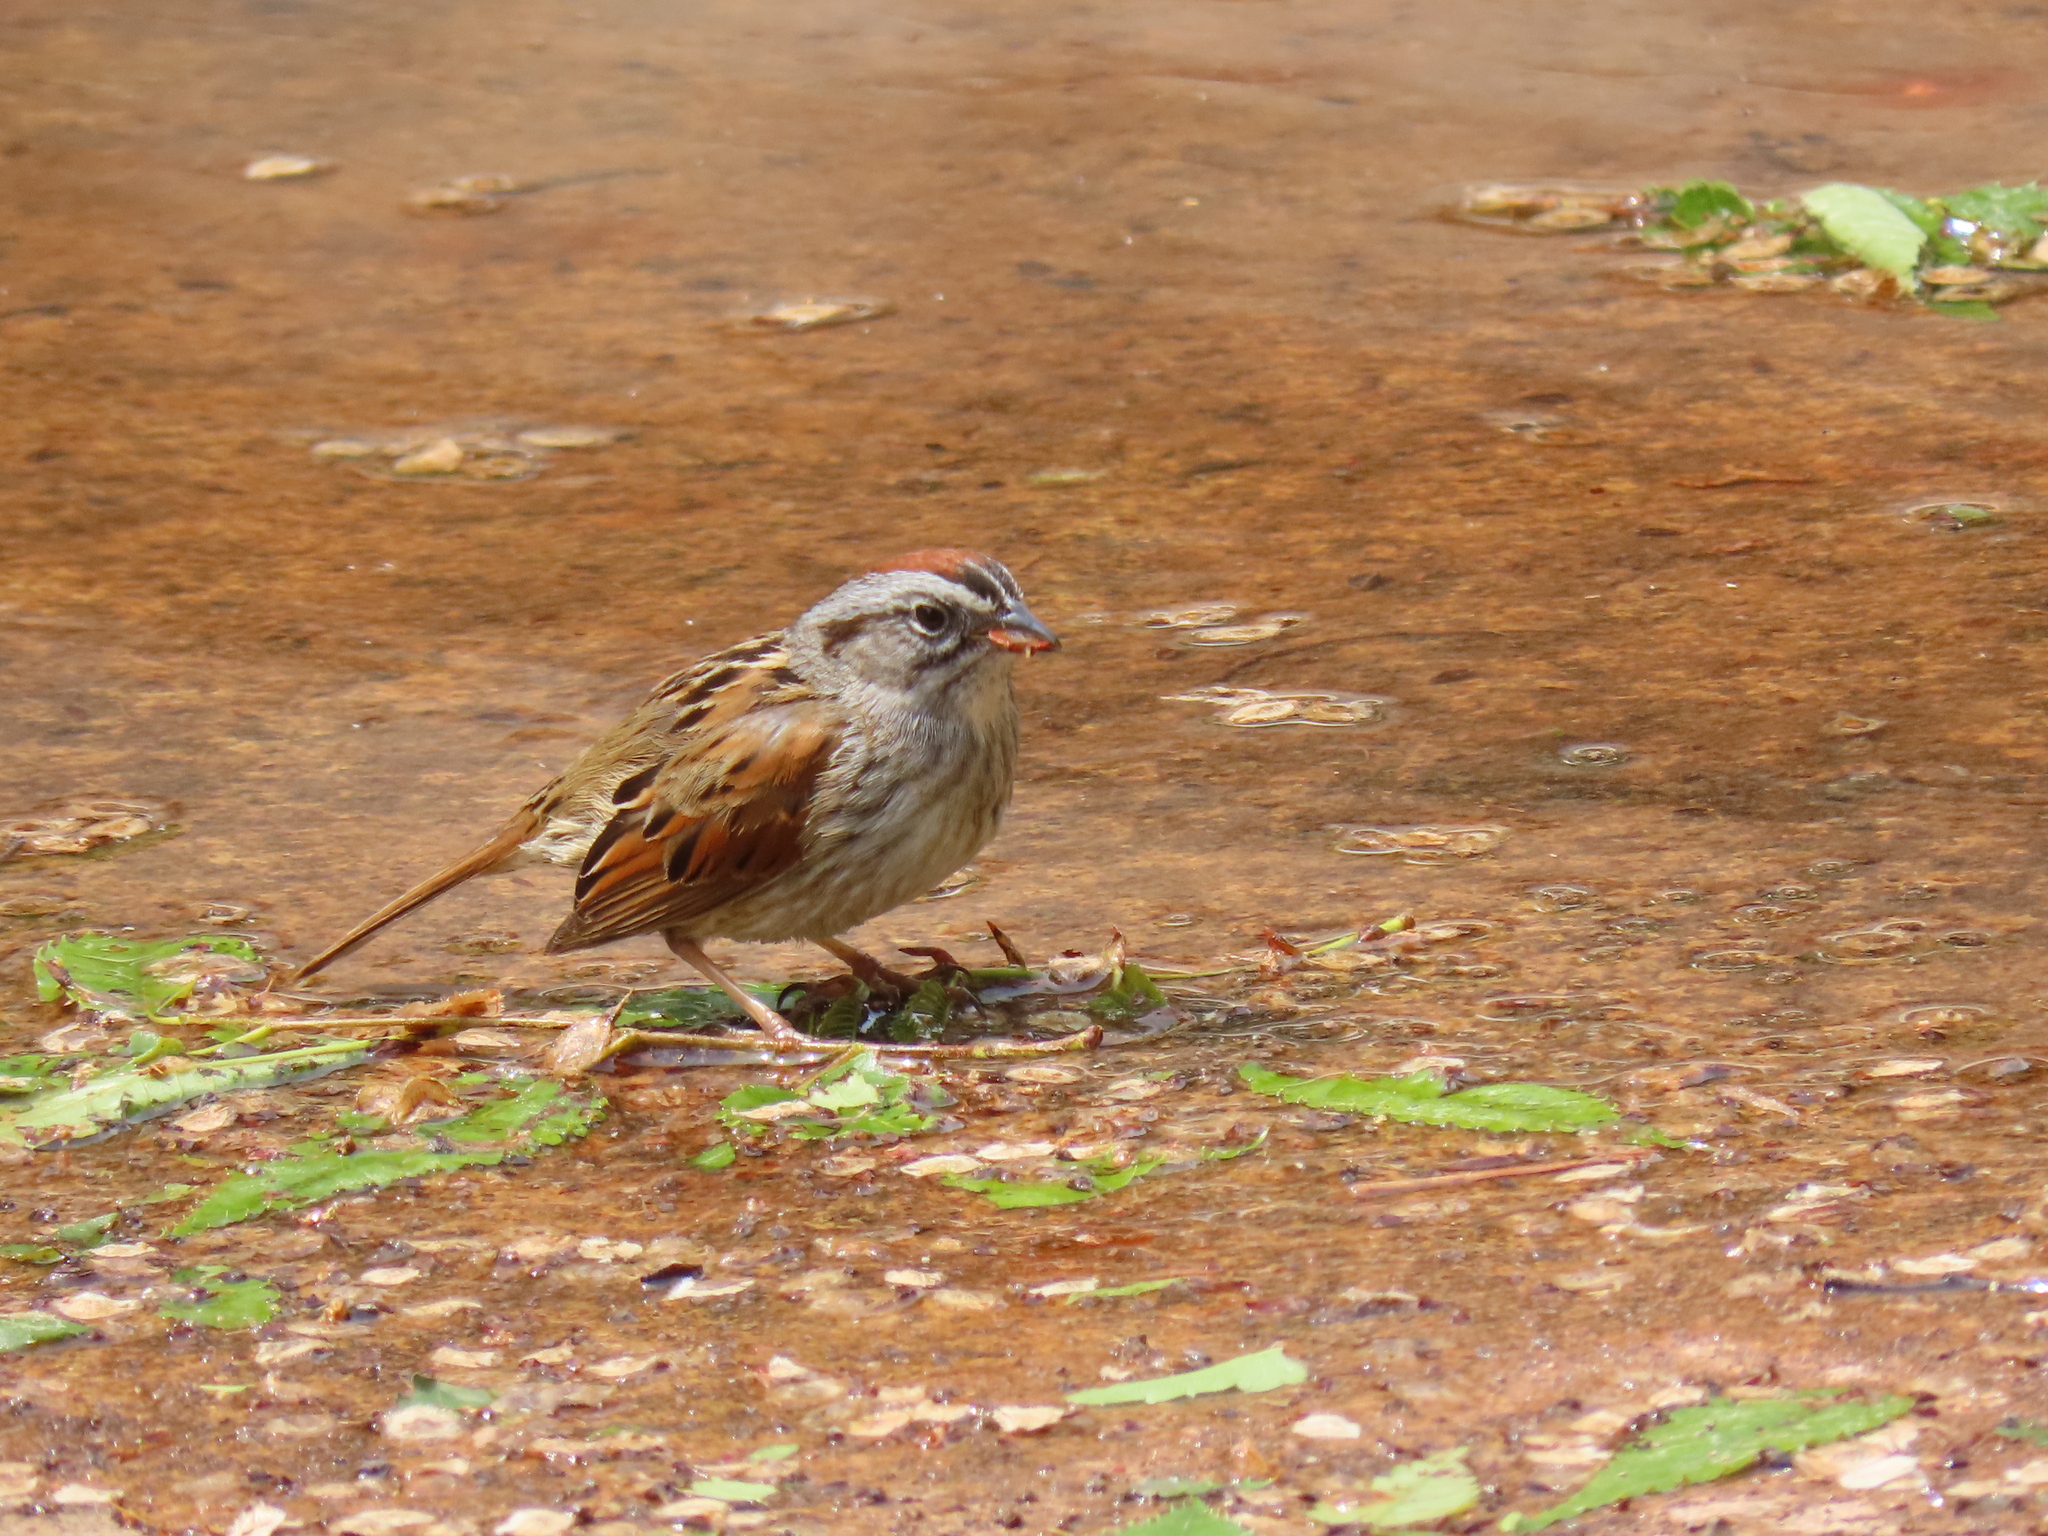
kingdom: Animalia
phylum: Chordata
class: Aves
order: Passeriformes
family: Passerellidae
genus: Melospiza
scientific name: Melospiza georgiana
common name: Swamp sparrow
